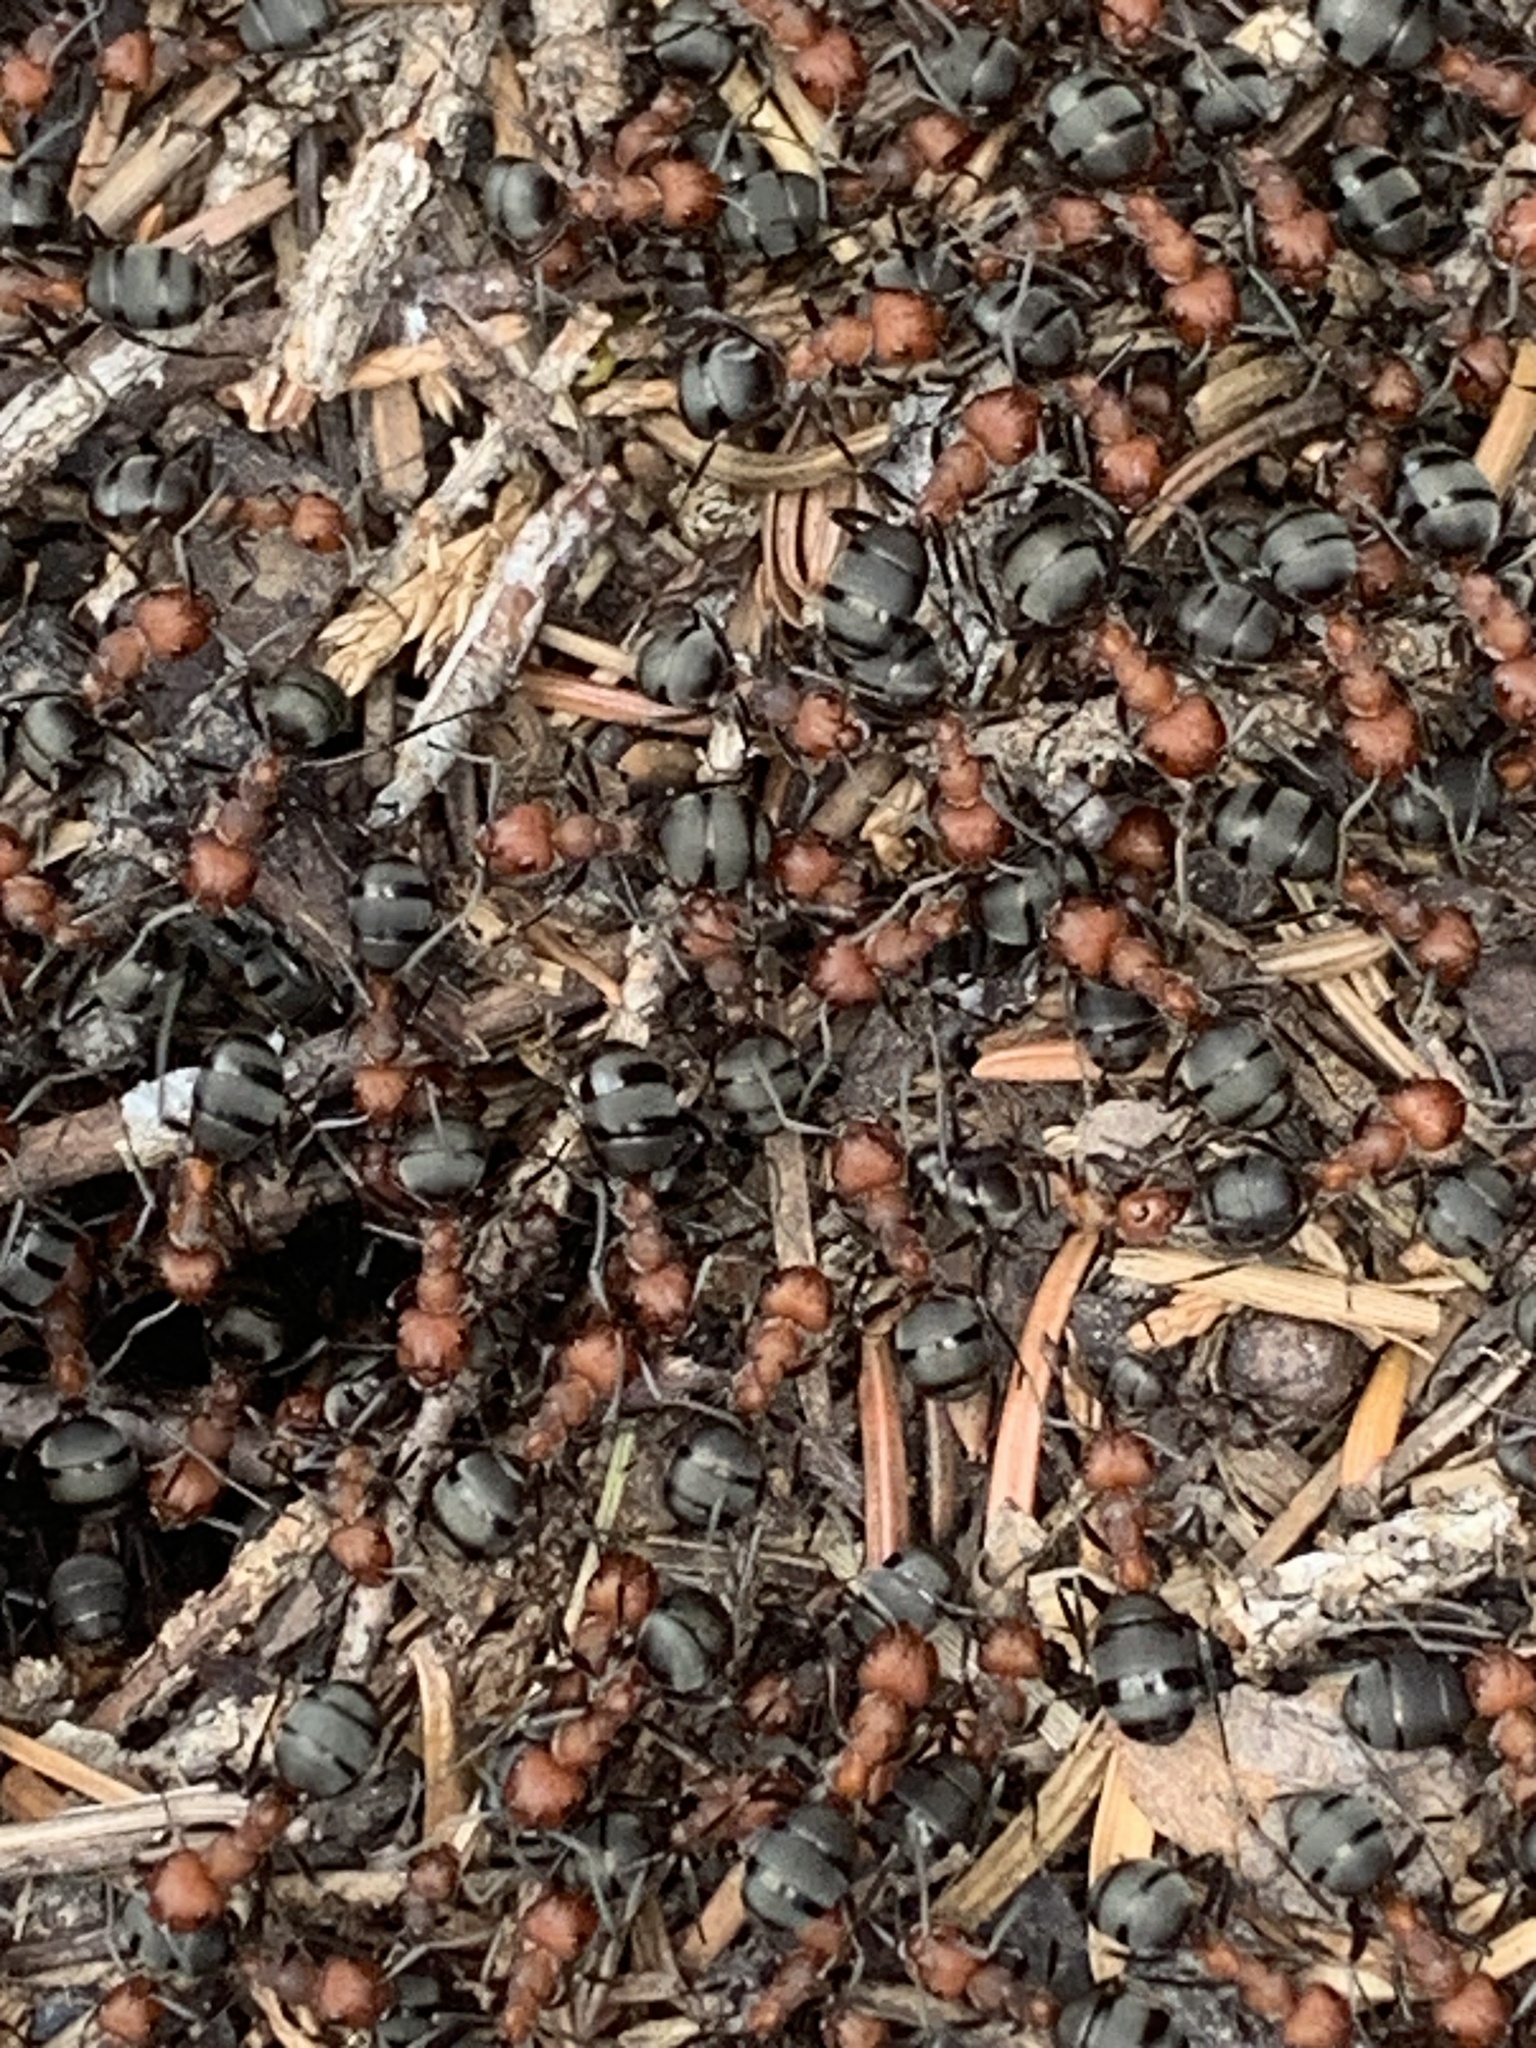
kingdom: Animalia
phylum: Arthropoda
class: Insecta
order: Hymenoptera
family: Formicidae
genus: Formica
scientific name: Formica obscuripes
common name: Western thatching ant
